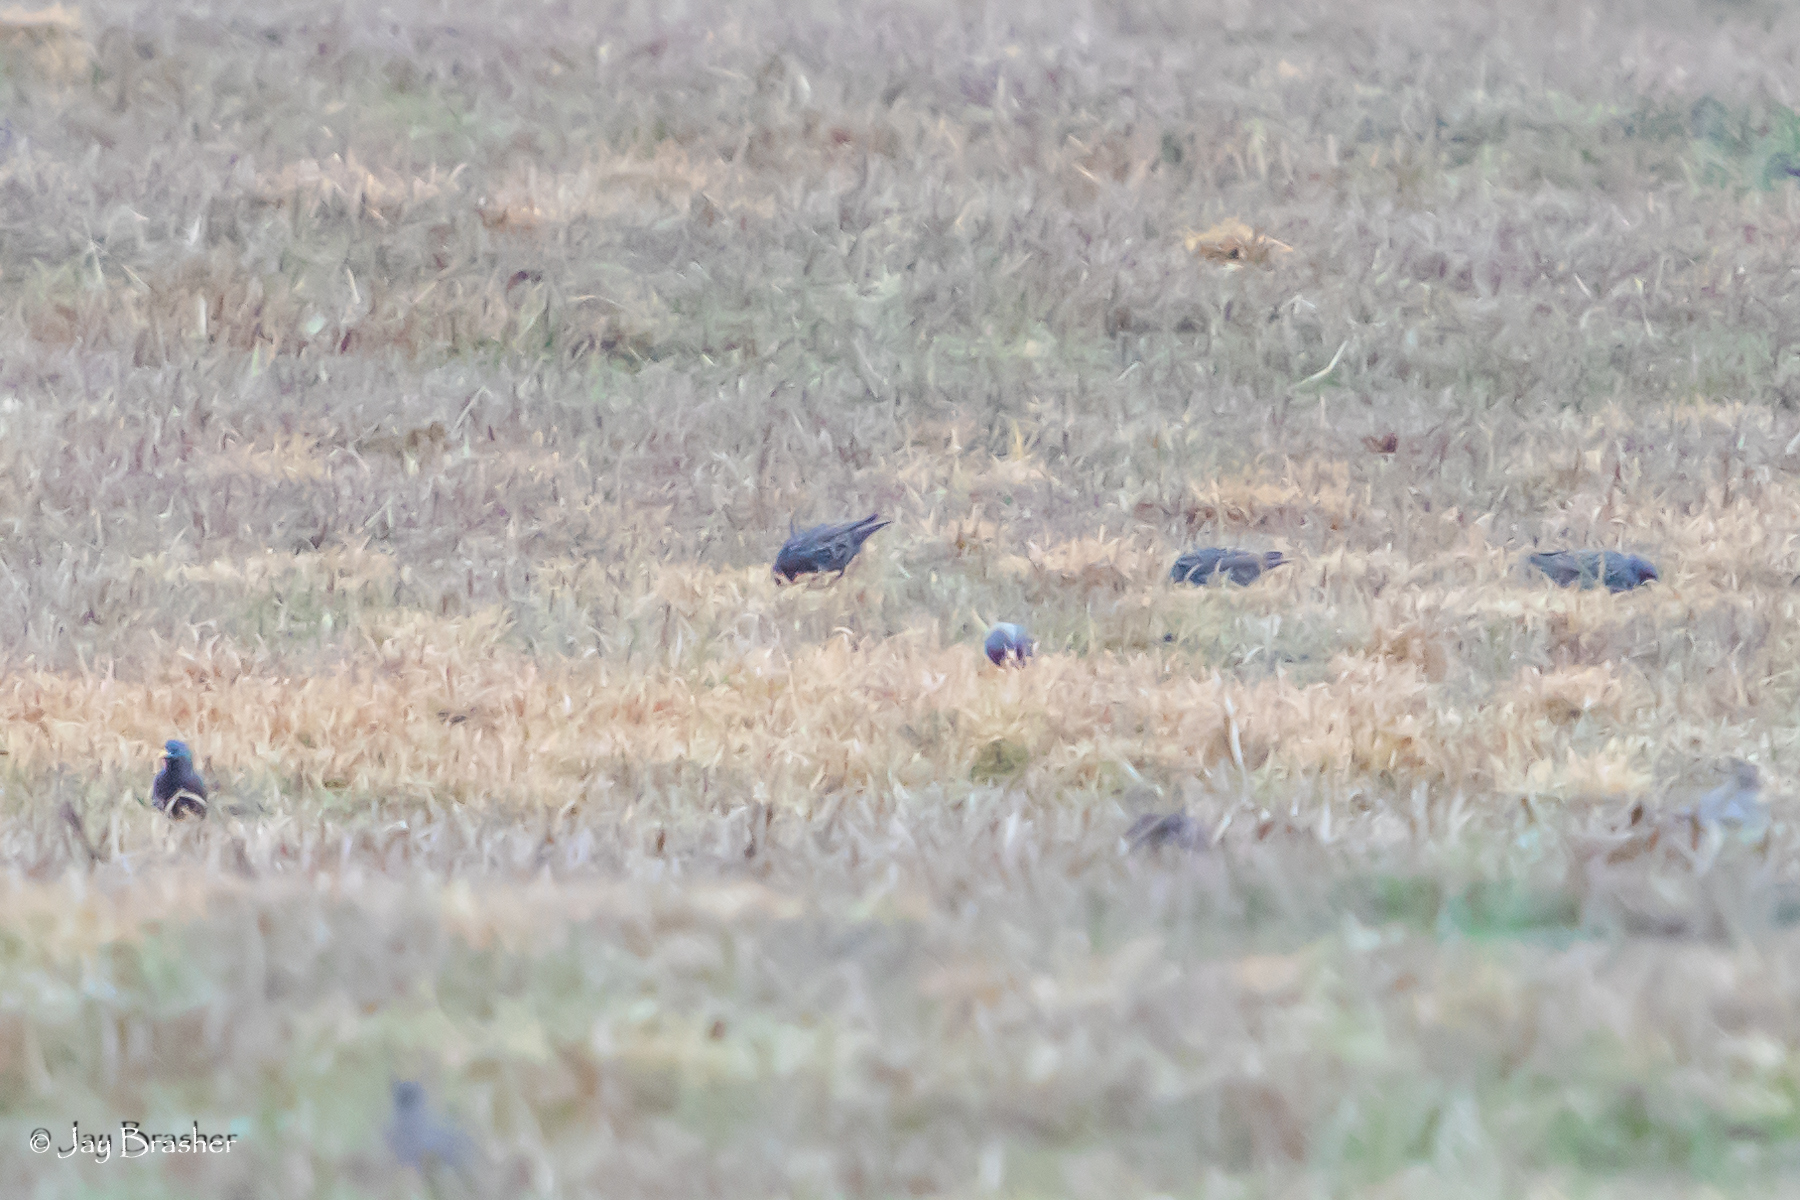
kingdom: Animalia
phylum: Chordata
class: Aves
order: Passeriformes
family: Sturnidae
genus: Sturnus
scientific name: Sturnus vulgaris
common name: Common starling
